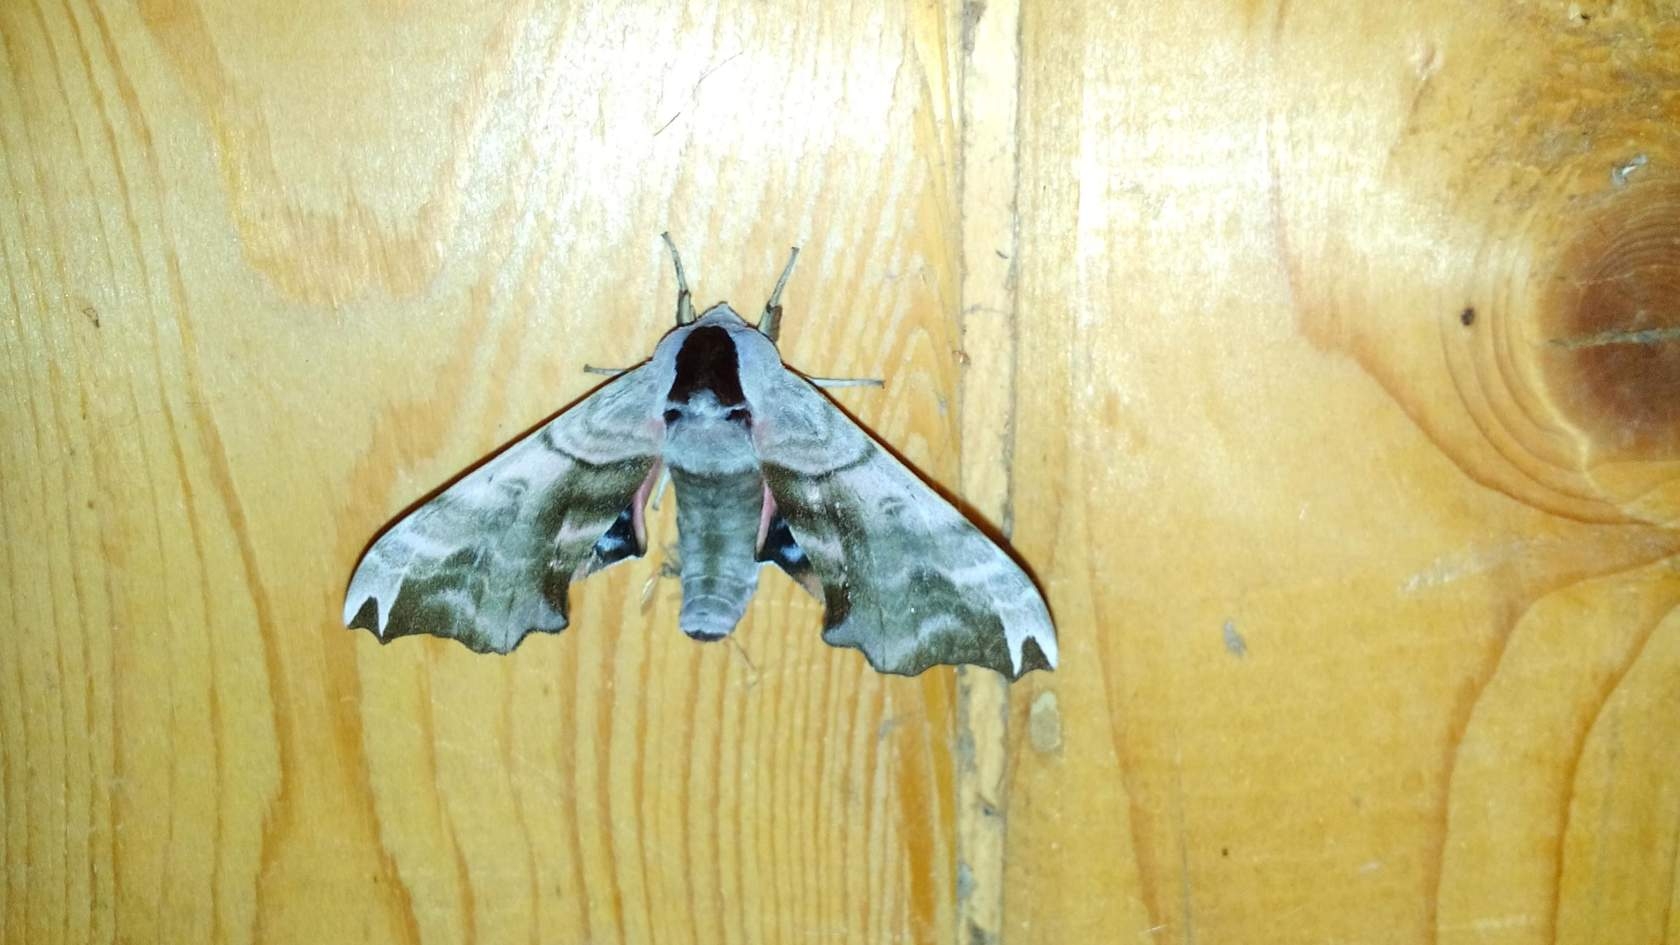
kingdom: Animalia
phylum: Arthropoda
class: Insecta
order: Lepidoptera
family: Sphingidae
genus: Smerinthus
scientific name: Smerinthus caecus
